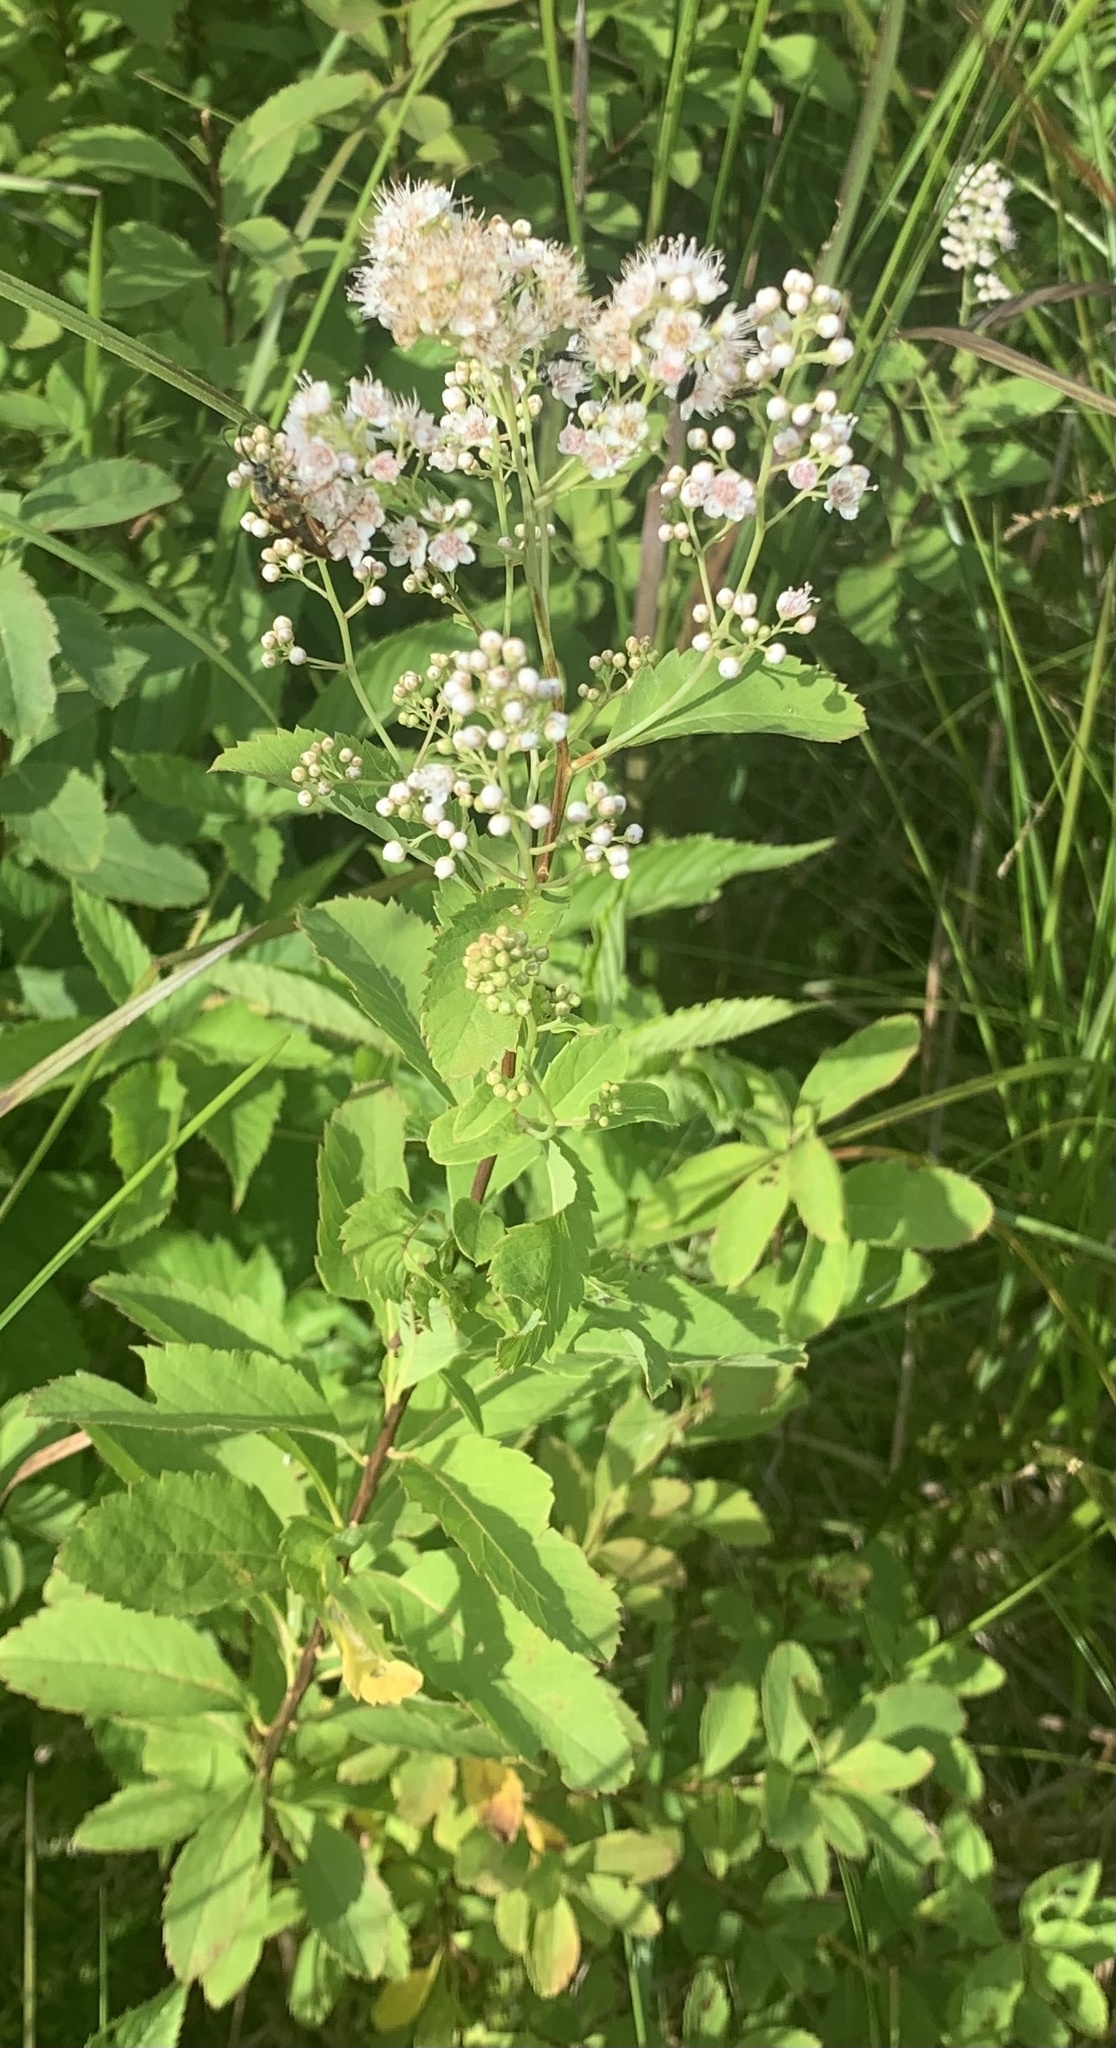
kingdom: Plantae
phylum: Tracheophyta
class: Magnoliopsida
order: Rosales
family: Rosaceae
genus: Spiraea
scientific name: Spiraea alba
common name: Pale bridewort
